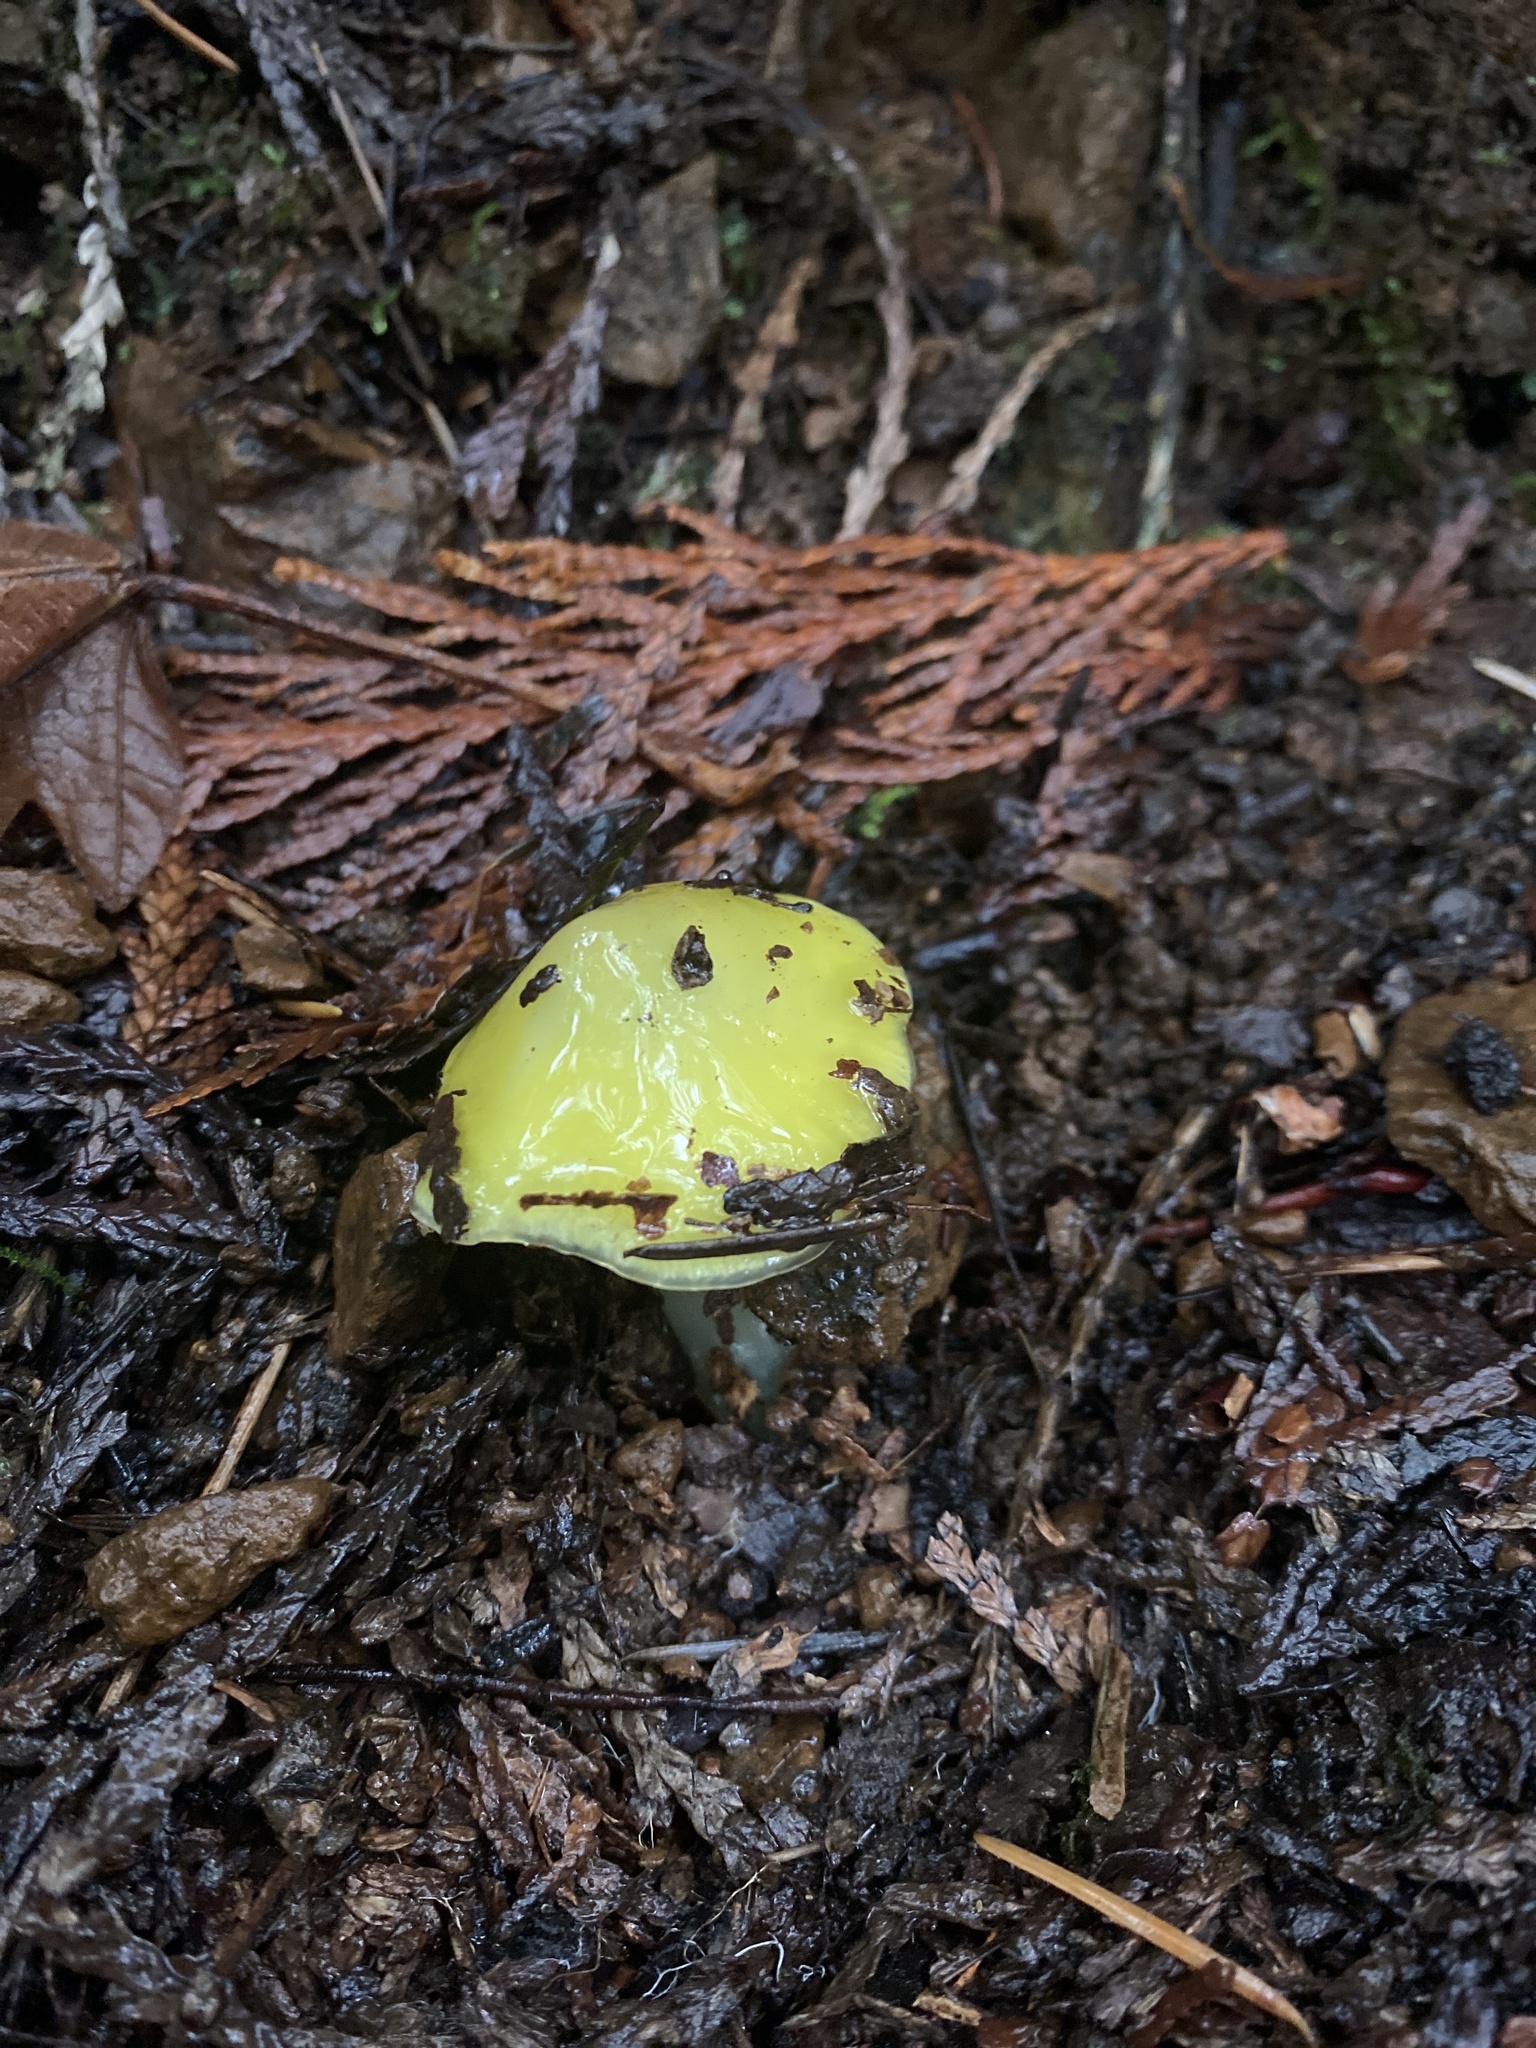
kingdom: Fungi
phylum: Basidiomycota
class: Agaricomycetes
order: Agaricales
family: Hygrophoraceae
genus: Hygrocybe
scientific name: Hygrocybe flavescens
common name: Golden waxy cap
